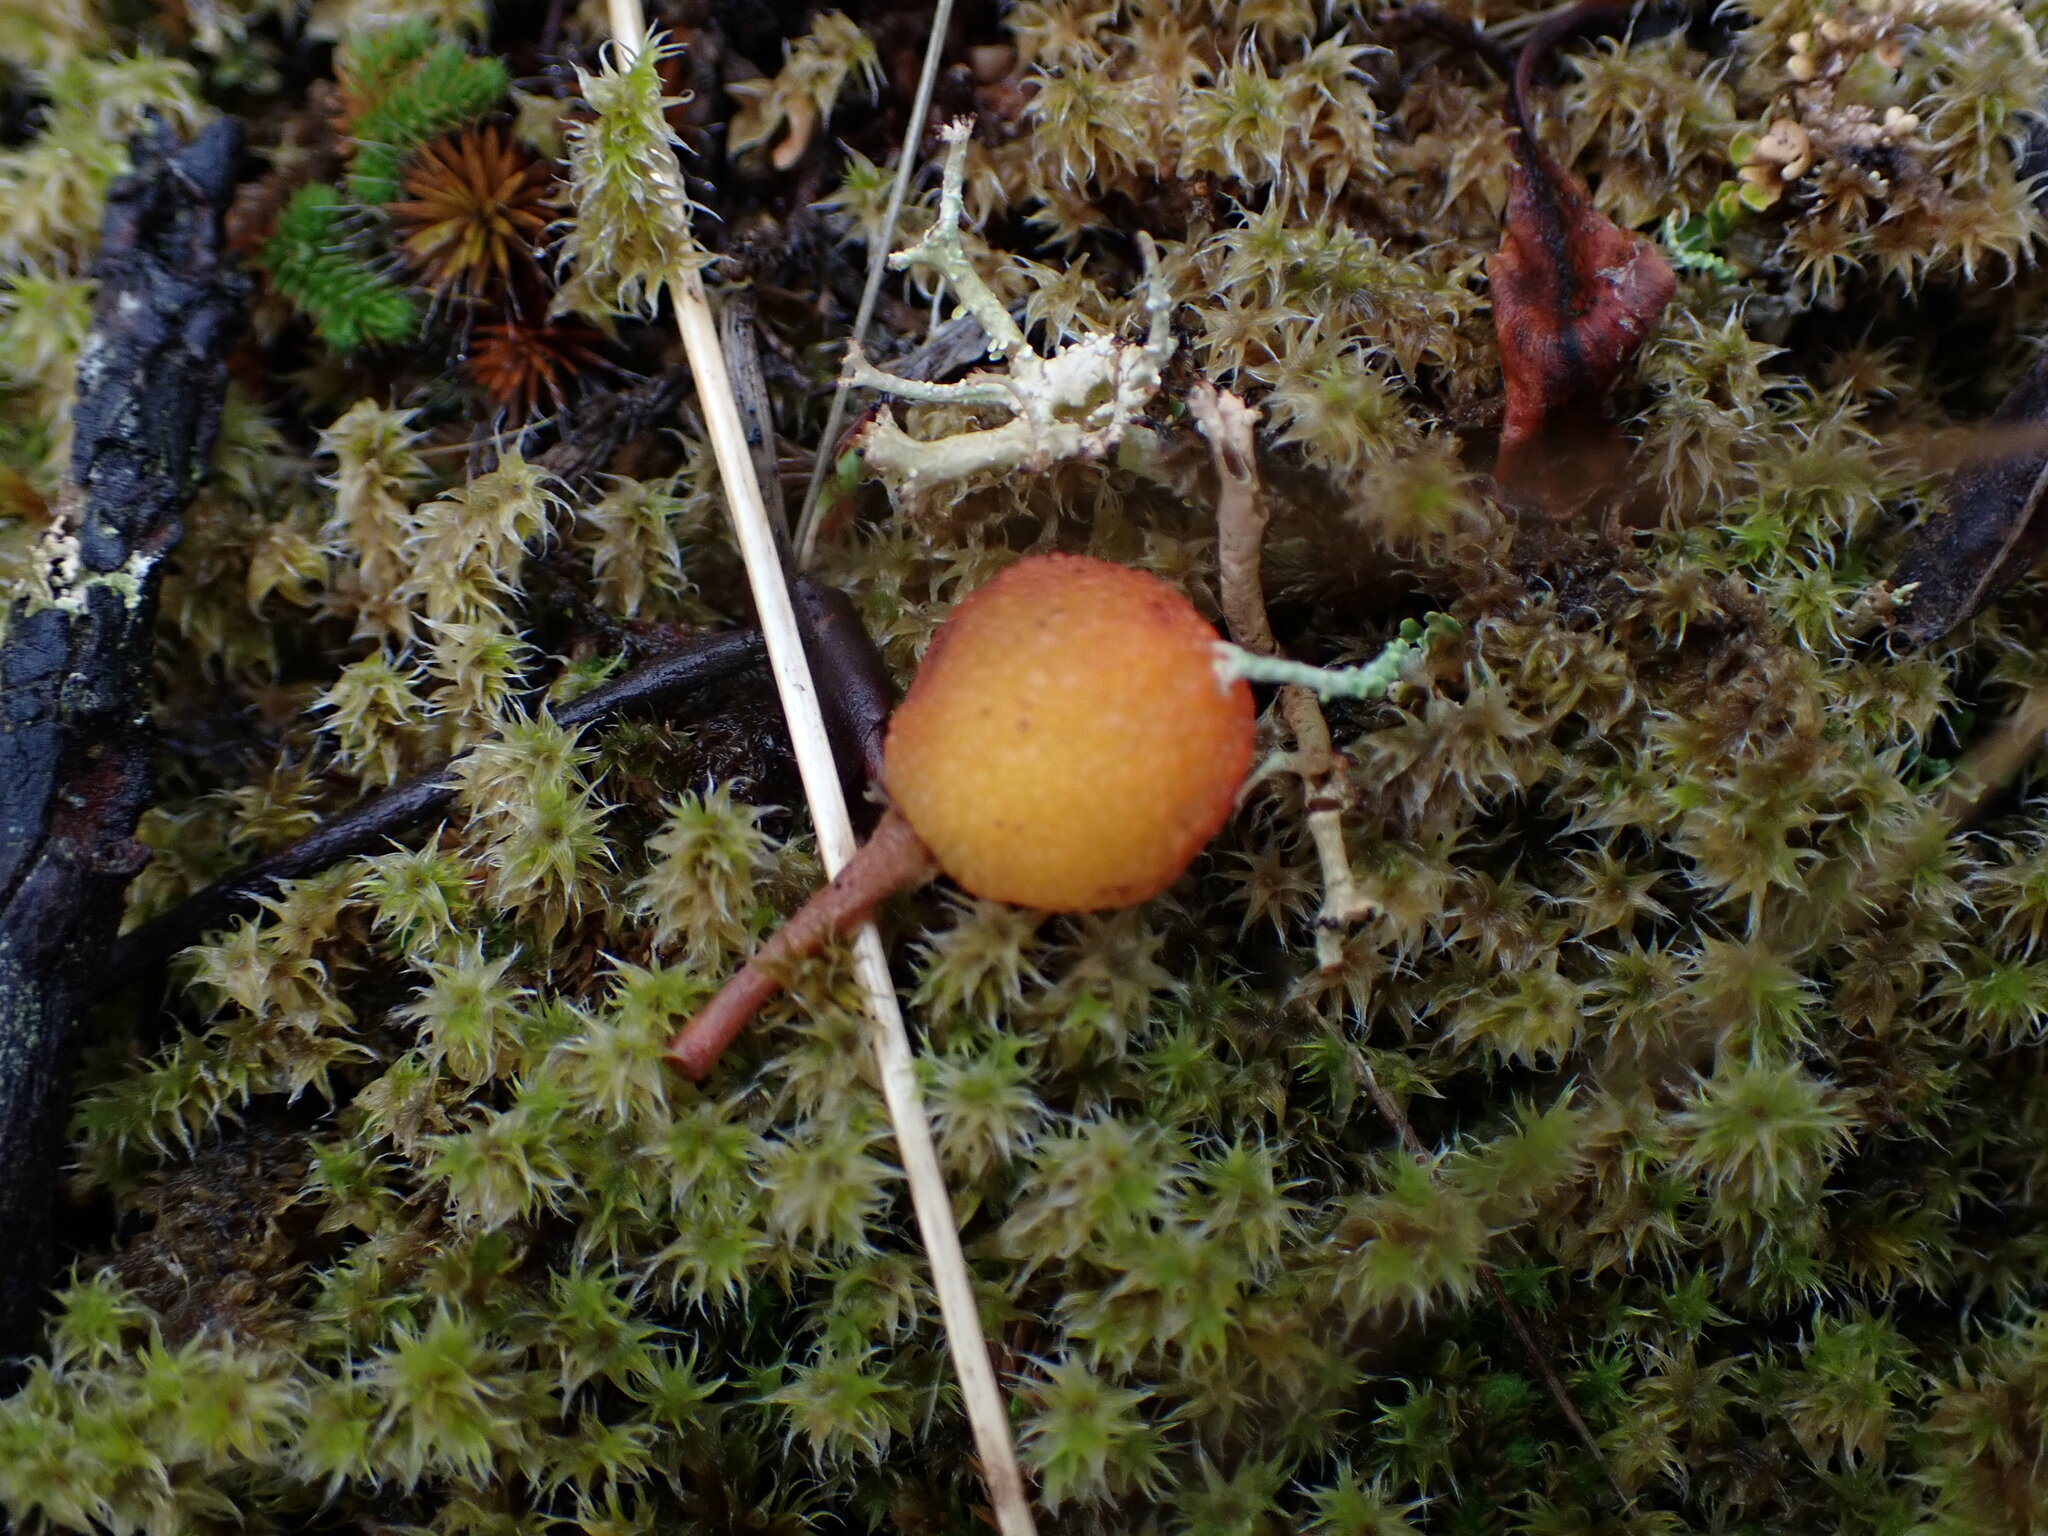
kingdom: Plantae
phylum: Tracheophyta
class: Magnoliopsida
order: Ericales
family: Ericaceae
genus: Arbutus
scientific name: Arbutus menziesii
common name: Pacific madrone
